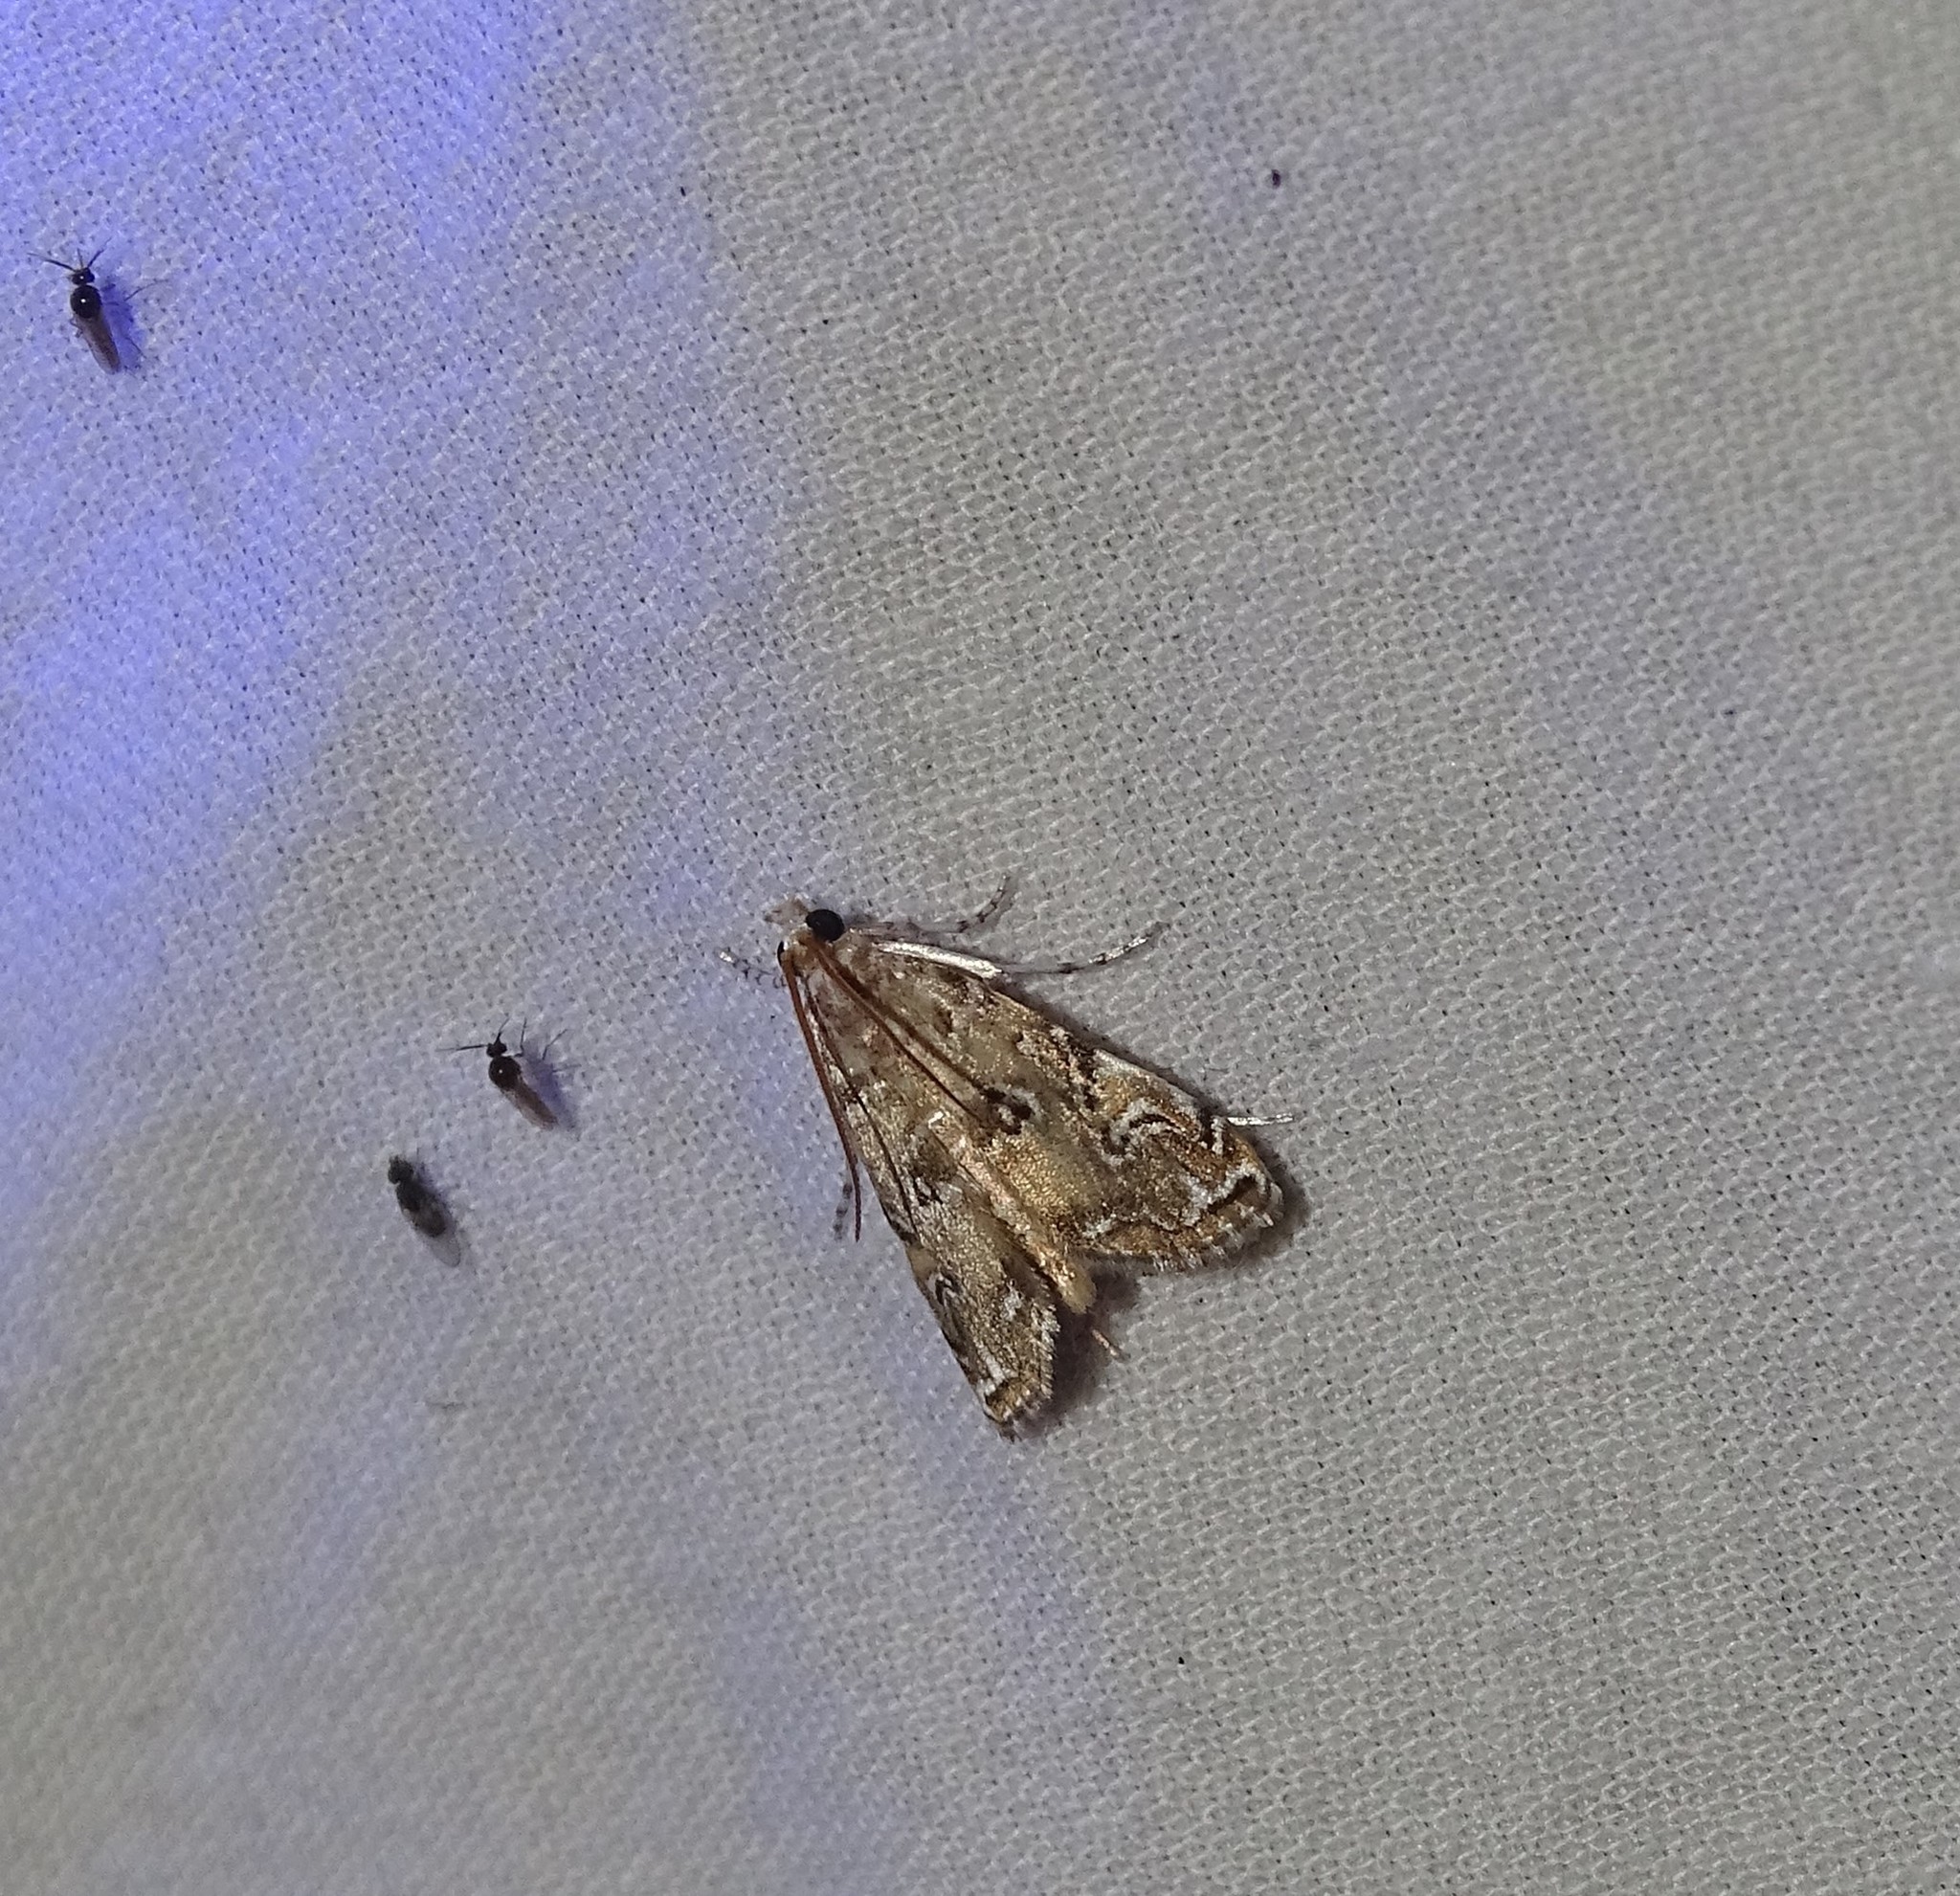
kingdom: Animalia
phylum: Arthropoda
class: Insecta
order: Lepidoptera
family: Crambidae
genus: Elophila
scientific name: Elophila gyralis
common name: Waterlily borer moth
